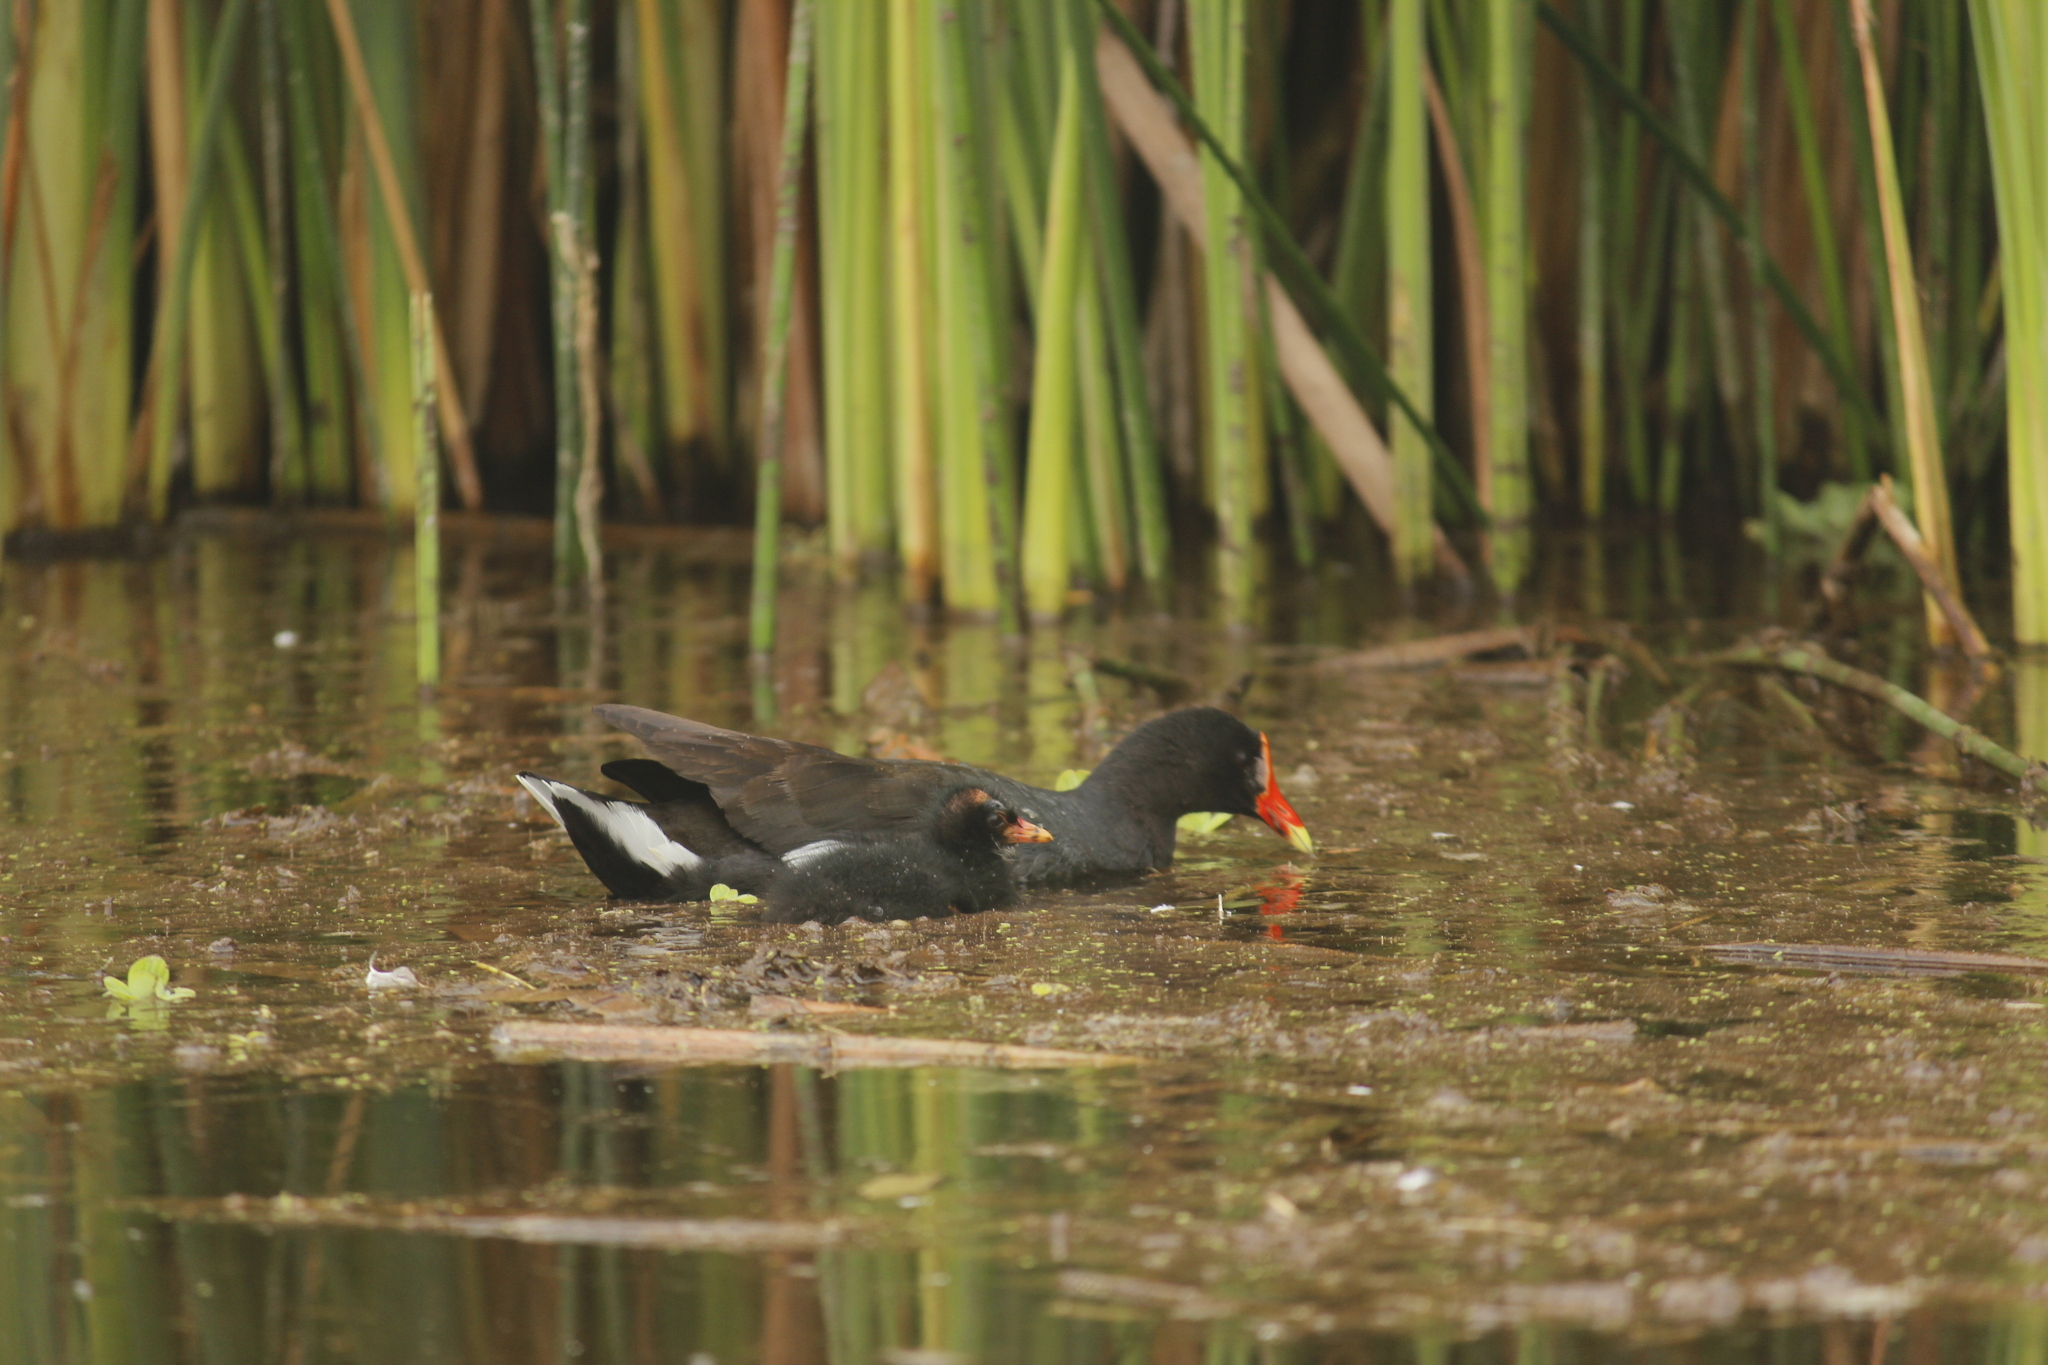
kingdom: Animalia
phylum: Chordata
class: Aves
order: Gruiformes
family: Rallidae
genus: Gallinula
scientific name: Gallinula chloropus
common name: Common moorhen
